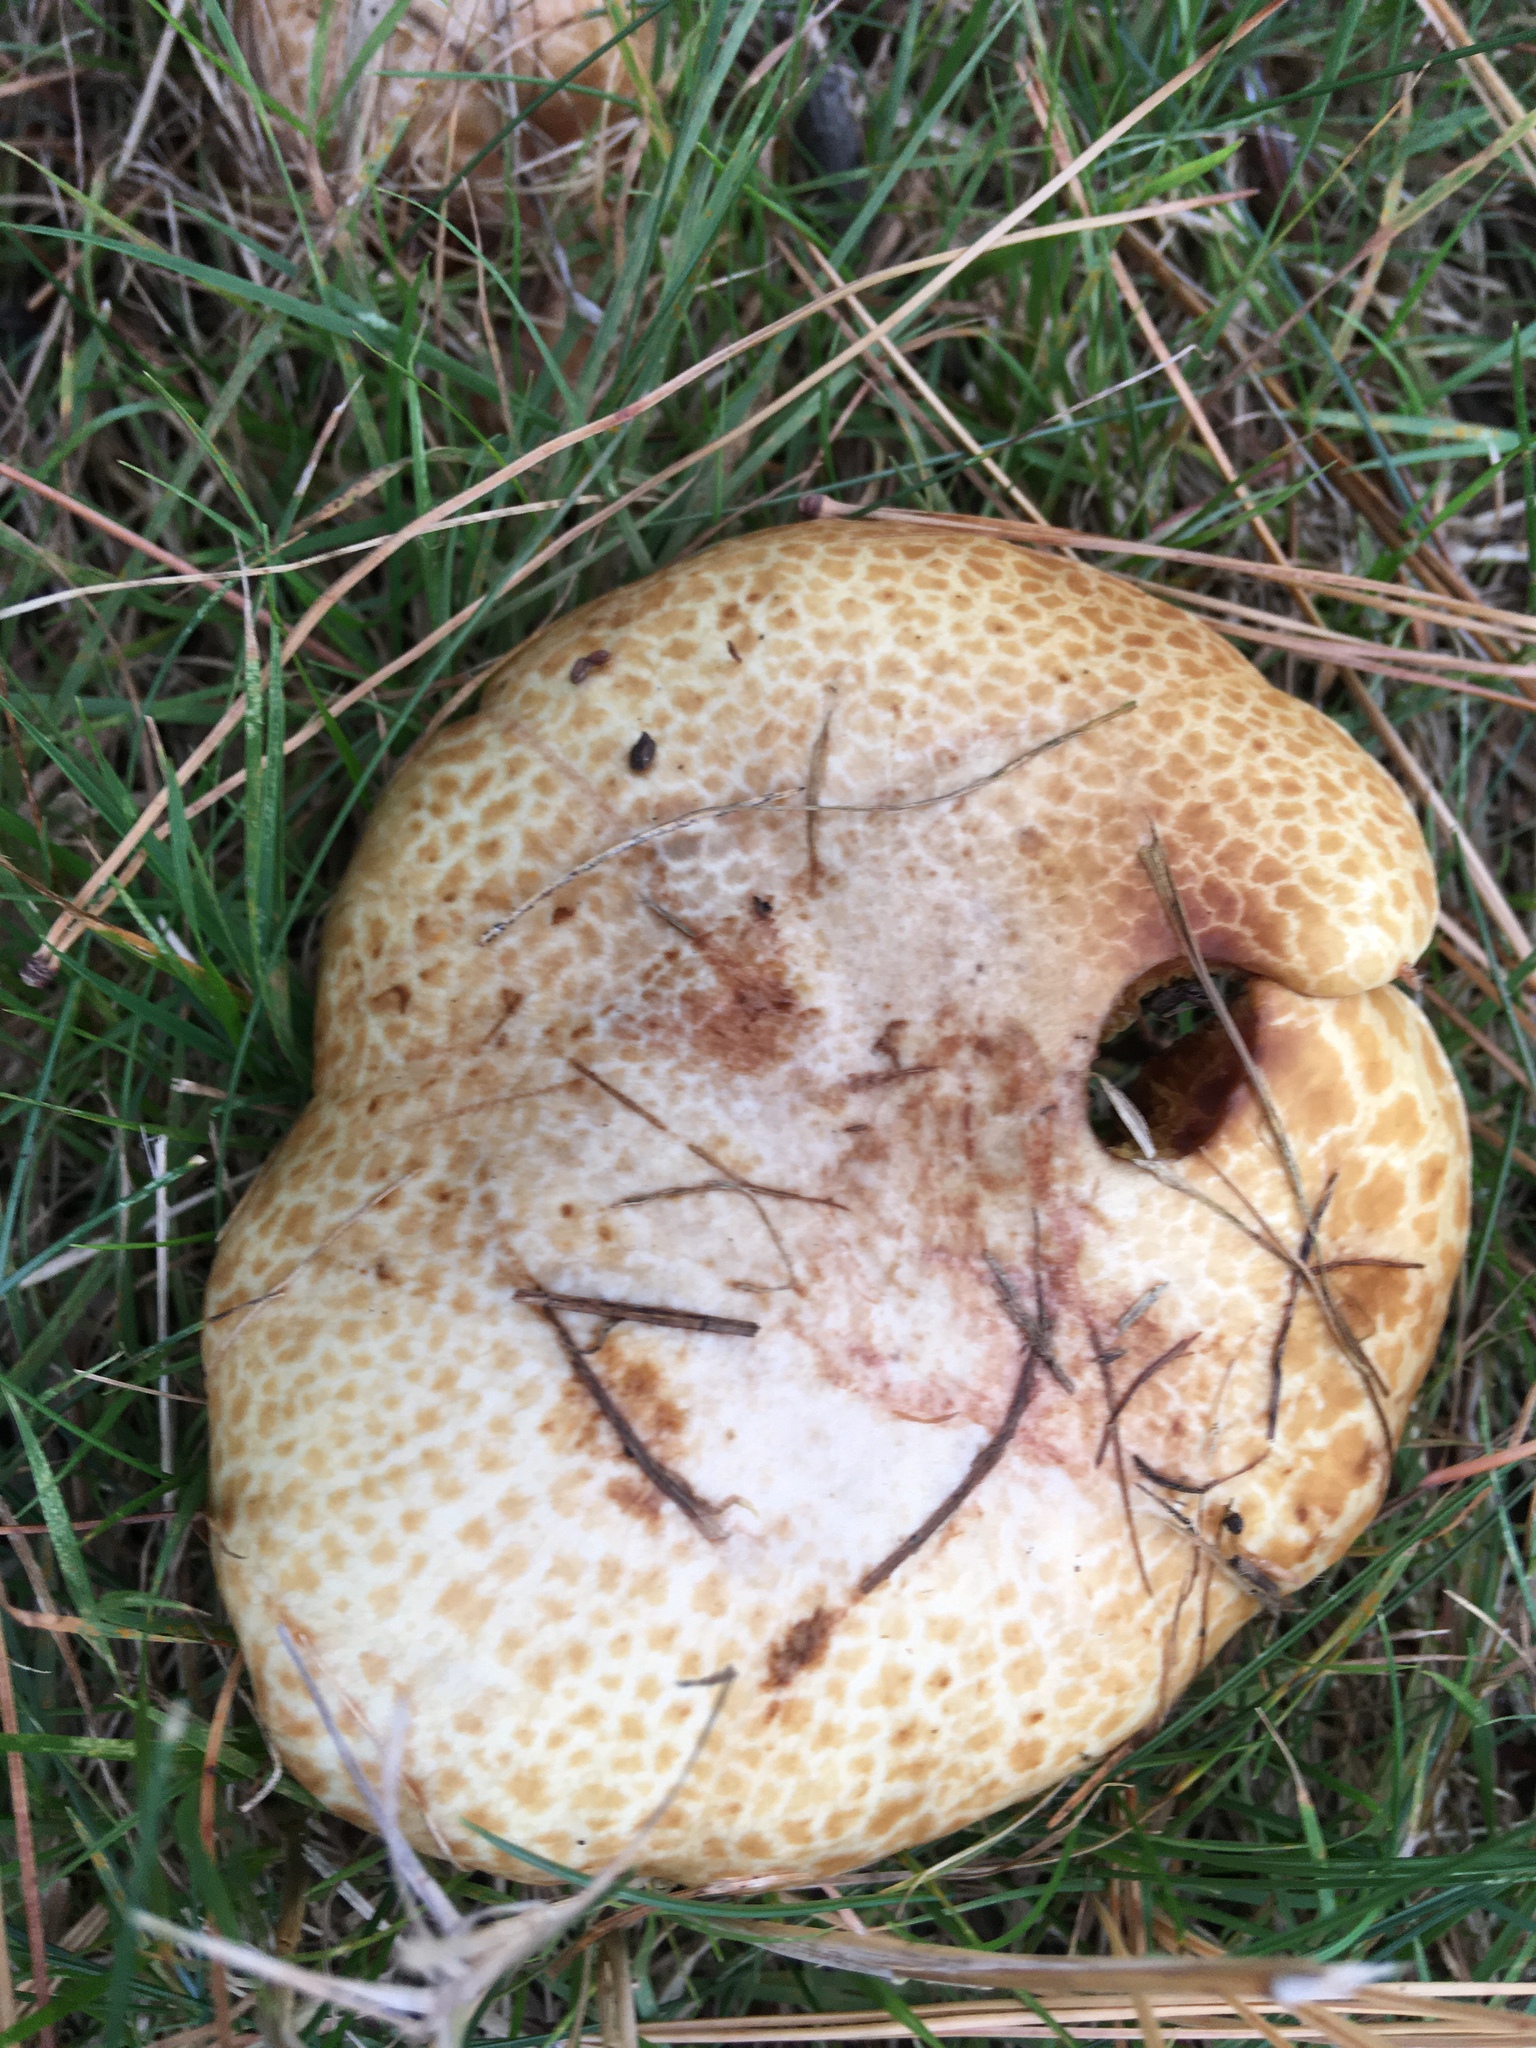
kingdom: Fungi
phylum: Basidiomycota
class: Agaricomycetes
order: Boletales
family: Suillaceae
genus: Fuscoboletinus
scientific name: Fuscoboletinus weaverae
